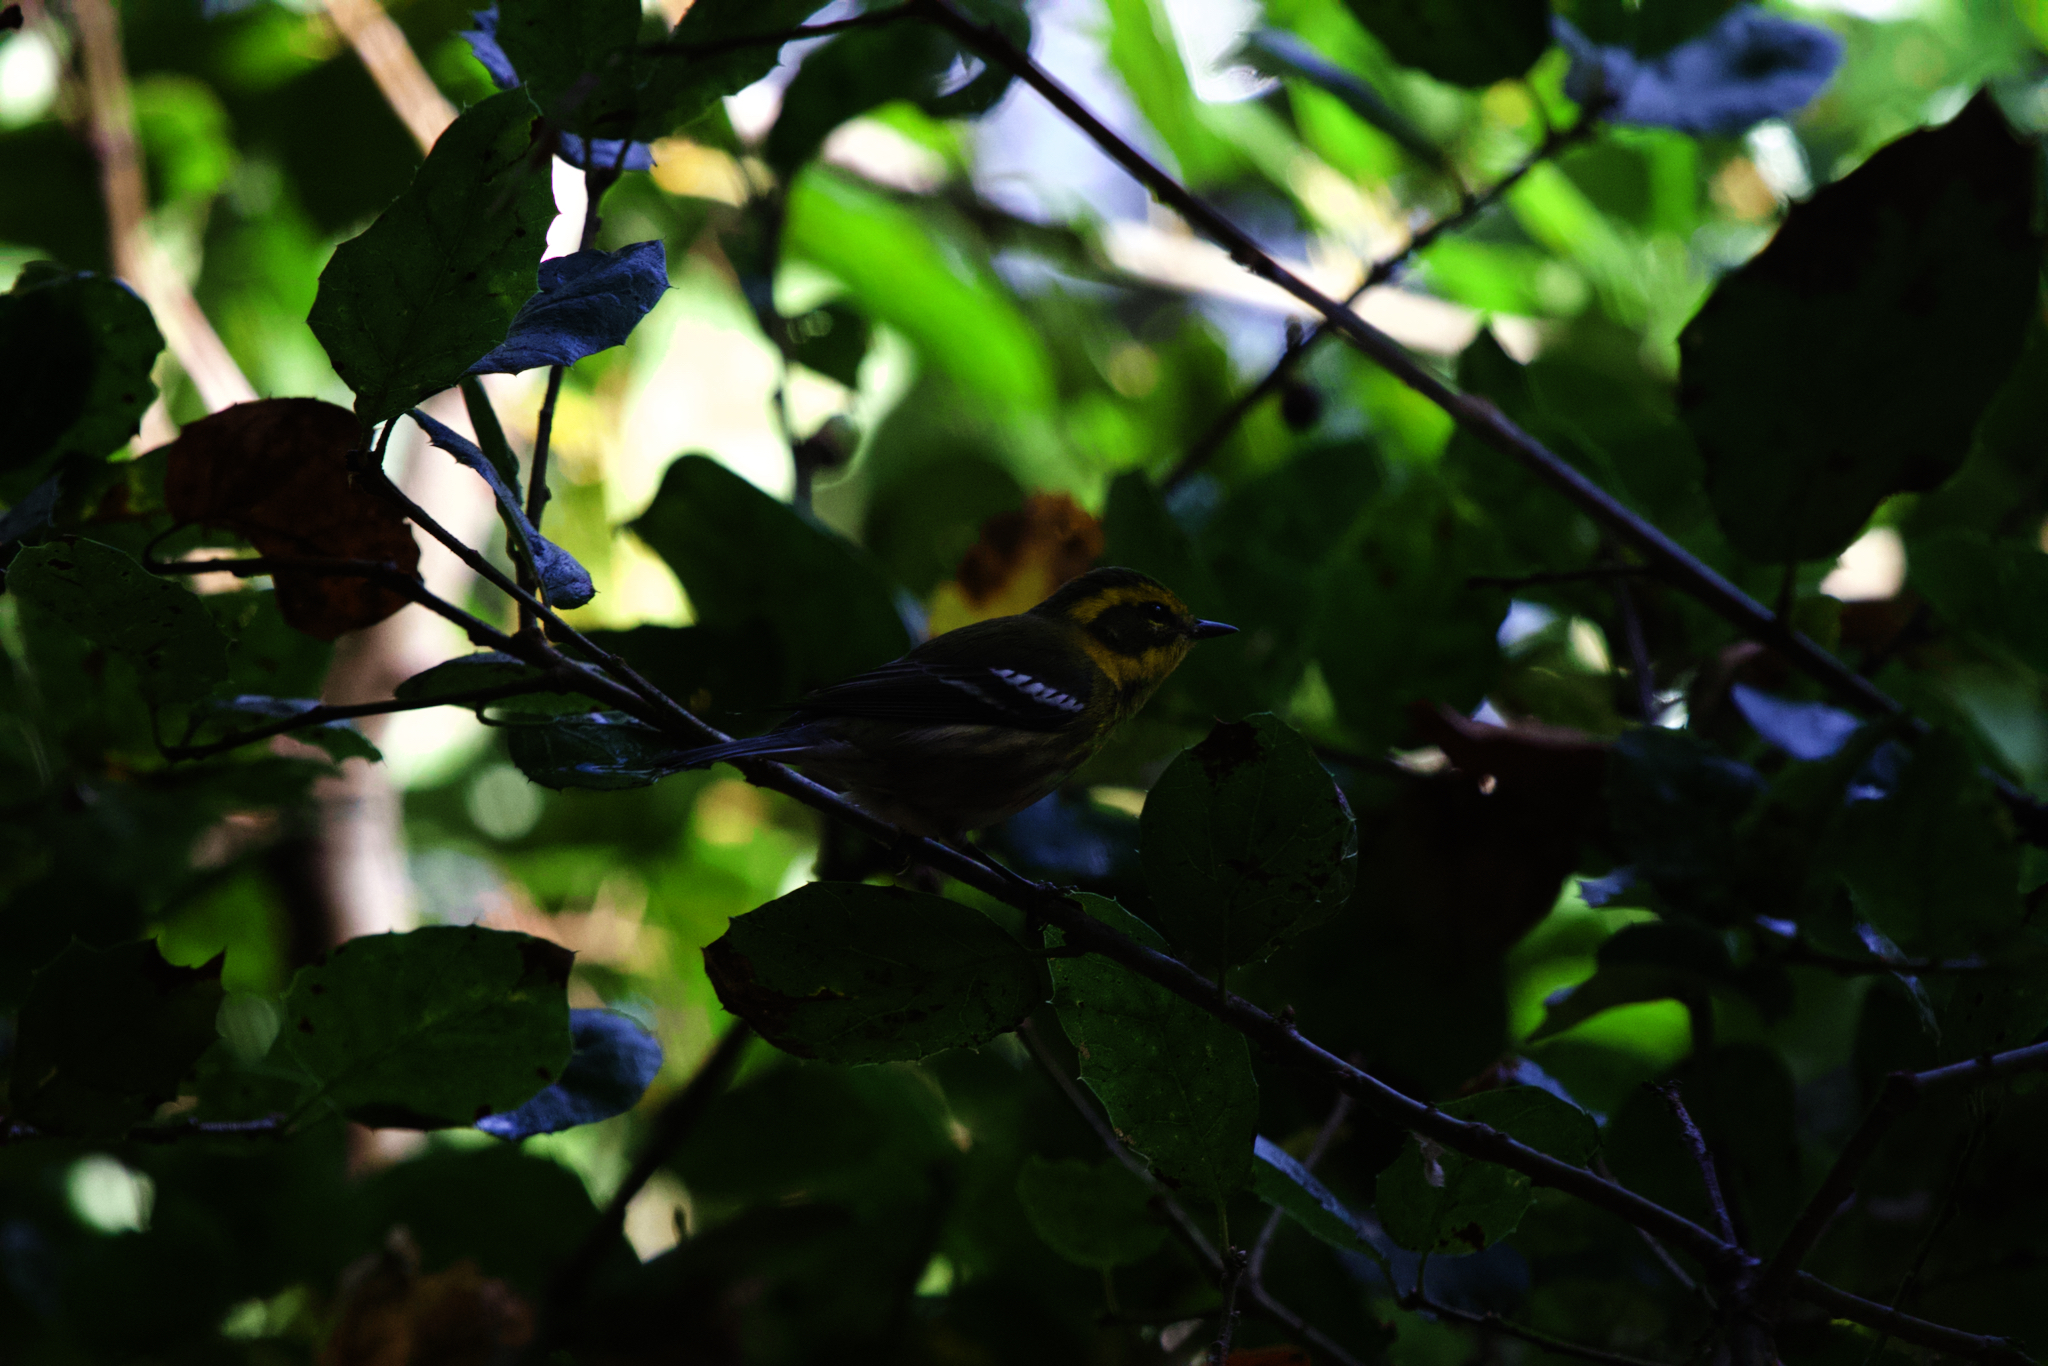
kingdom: Animalia
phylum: Chordata
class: Aves
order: Passeriformes
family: Parulidae
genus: Setophaga
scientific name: Setophaga townsendi
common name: Townsend's warbler
